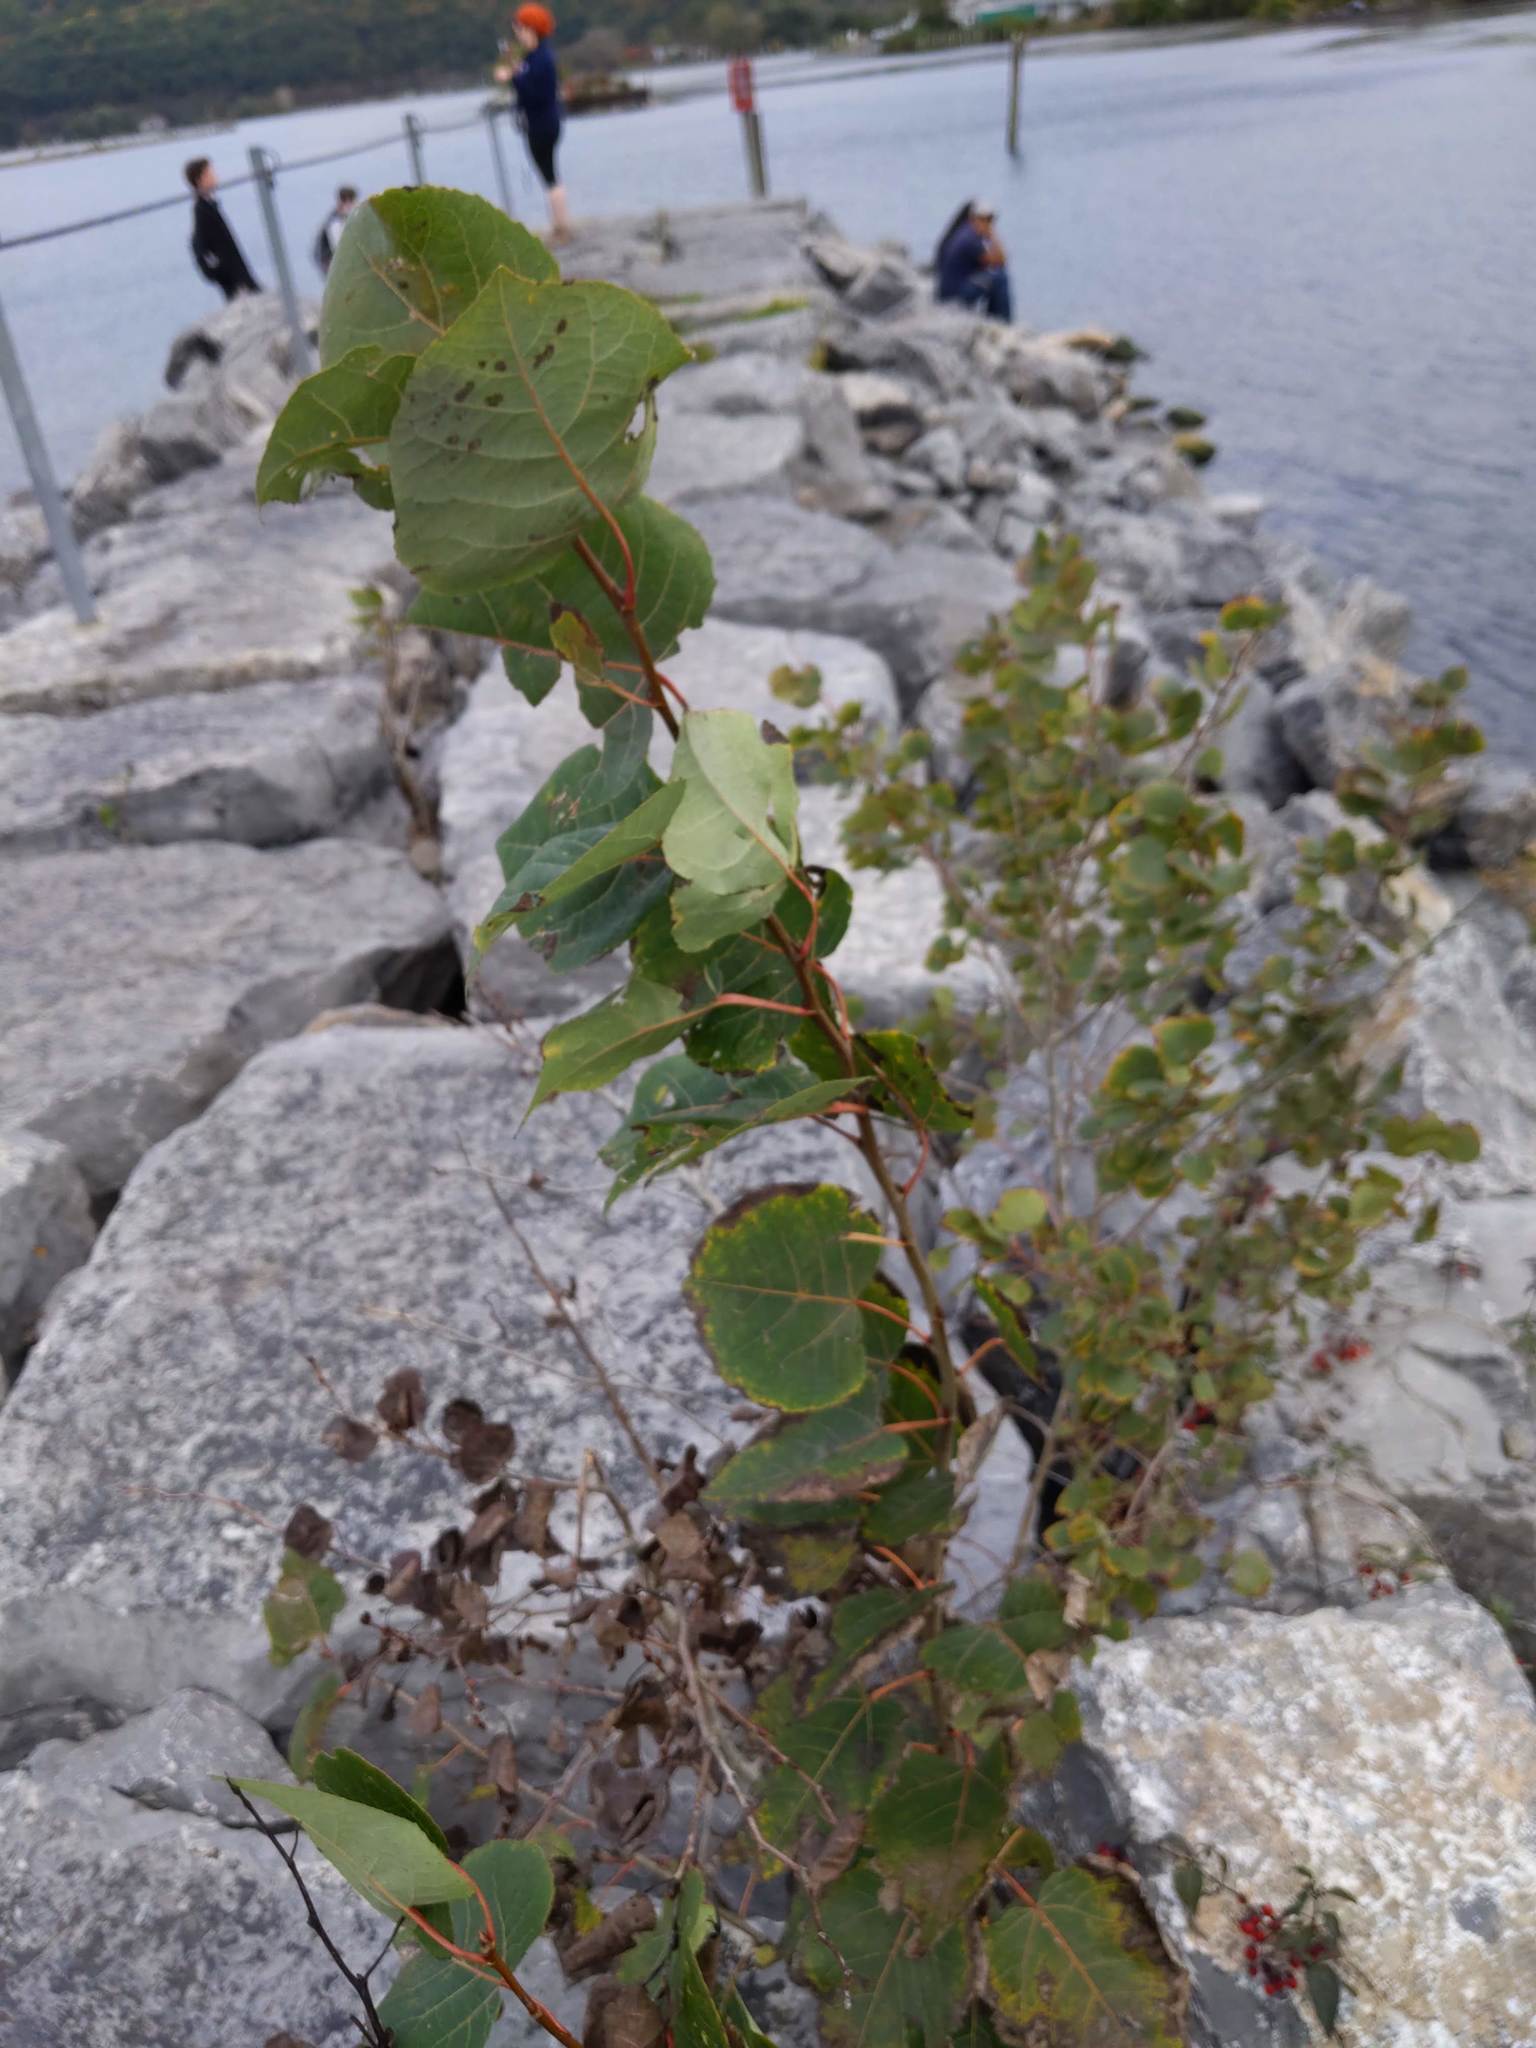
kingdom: Plantae
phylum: Tracheophyta
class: Magnoliopsida
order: Malpighiales
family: Salicaceae
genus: Populus
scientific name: Populus tremuloides
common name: Quaking aspen
